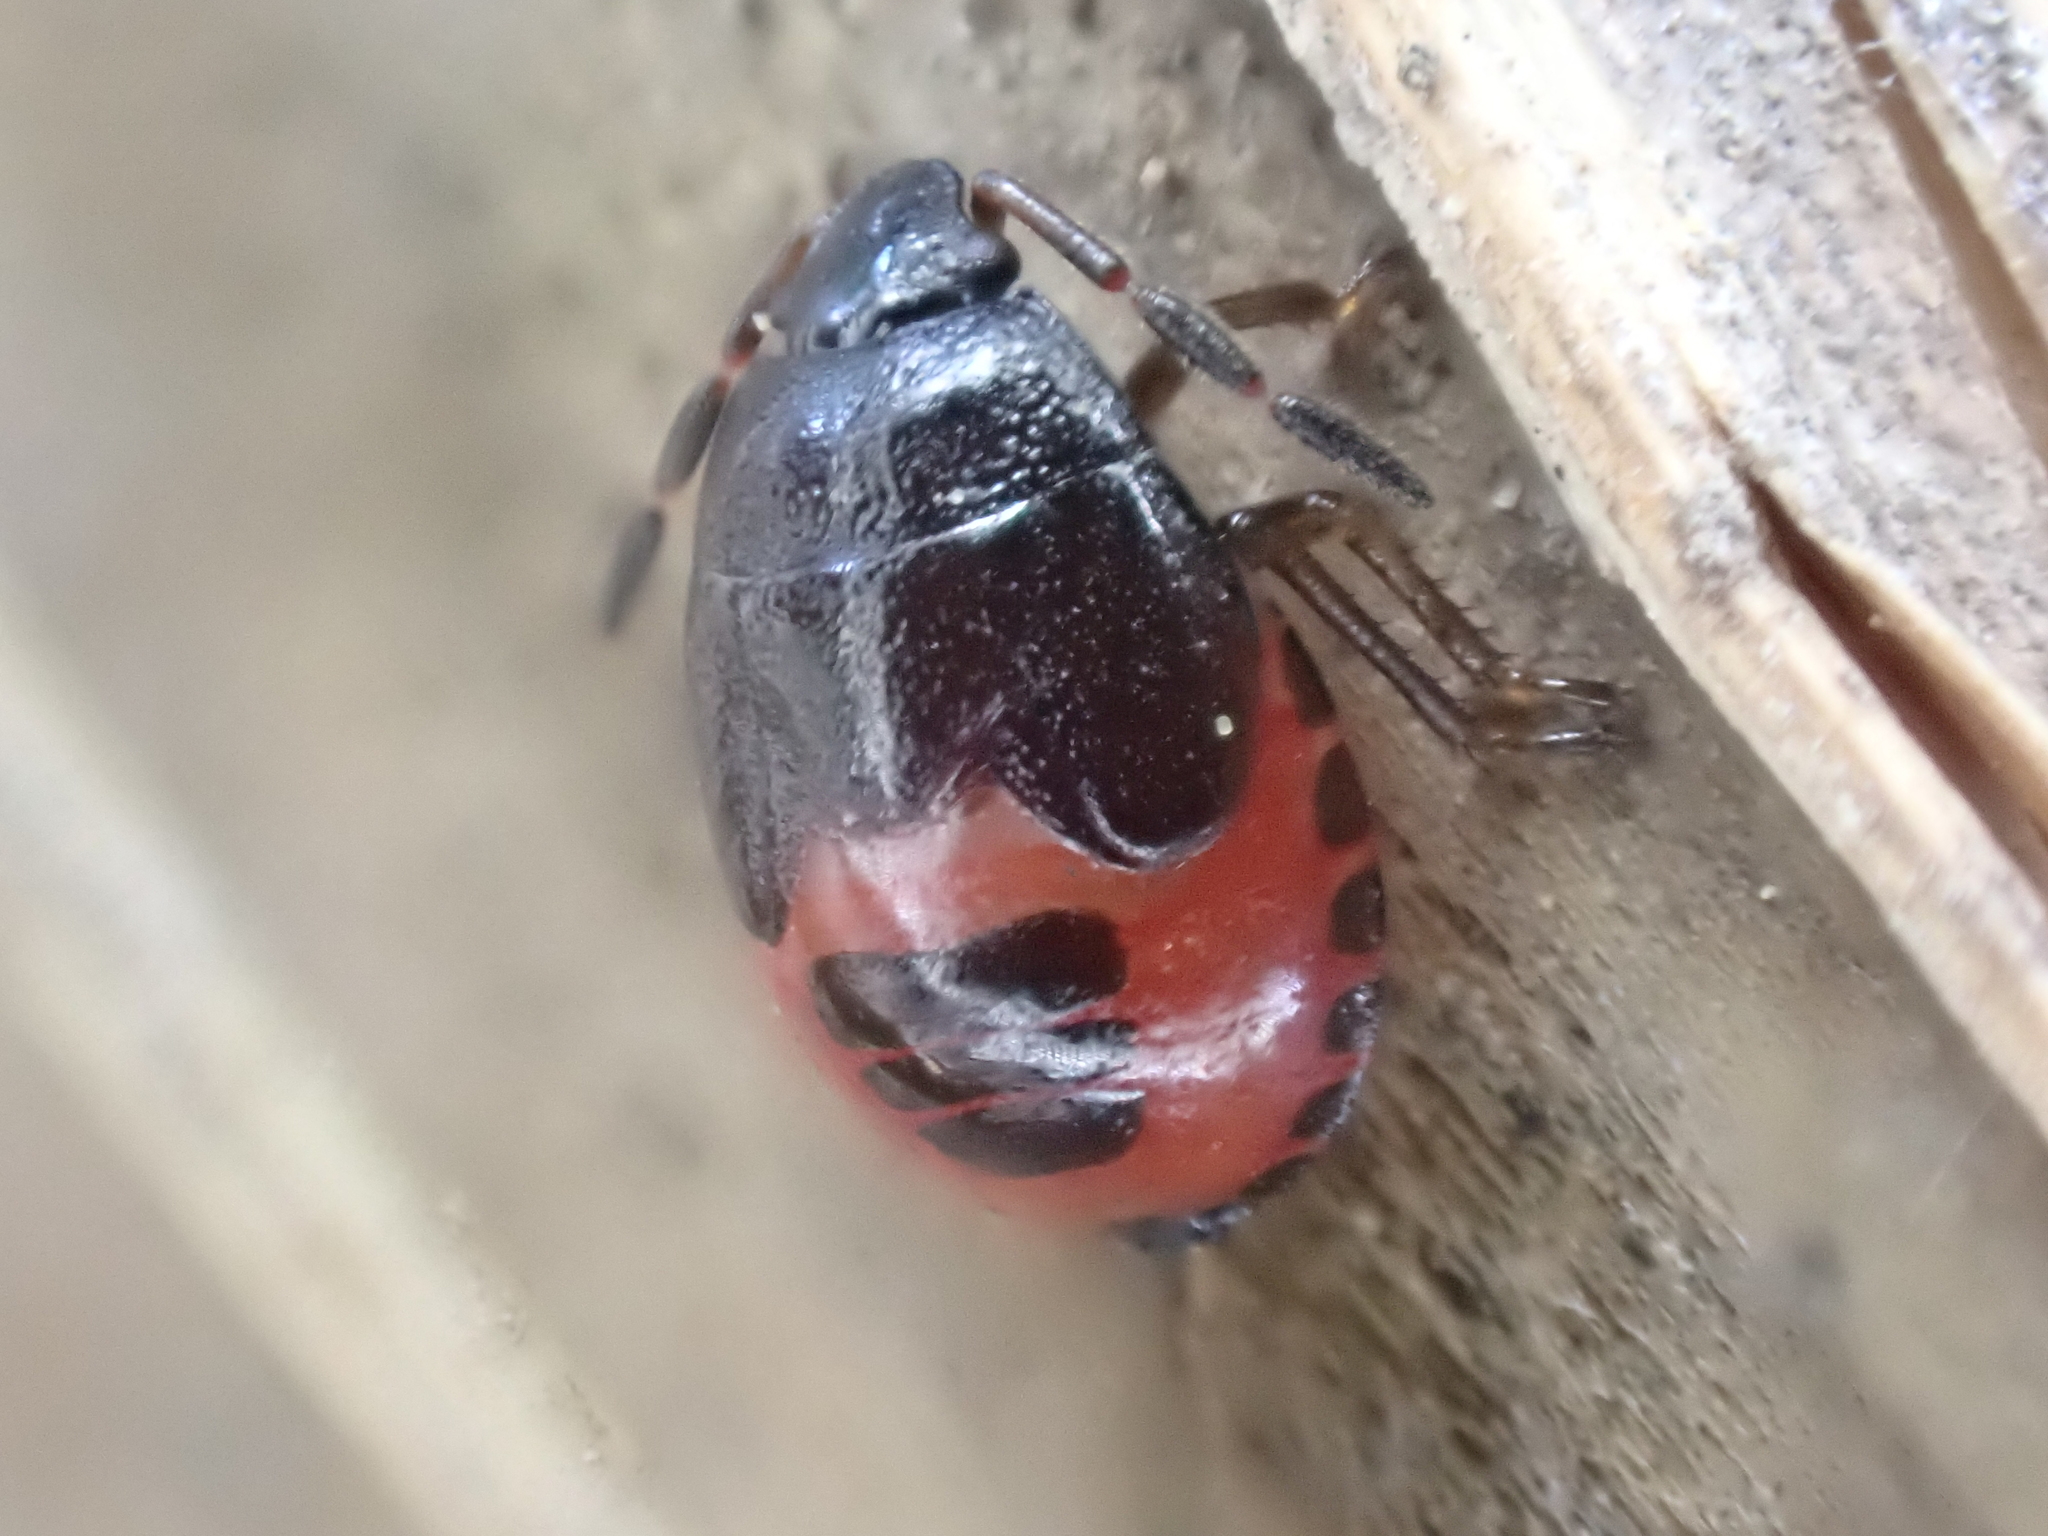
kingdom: Animalia
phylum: Arthropoda
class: Insecta
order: Hemiptera
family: Cydnidae
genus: Sehirus
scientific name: Sehirus cinctus
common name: White-margined burrower bug
